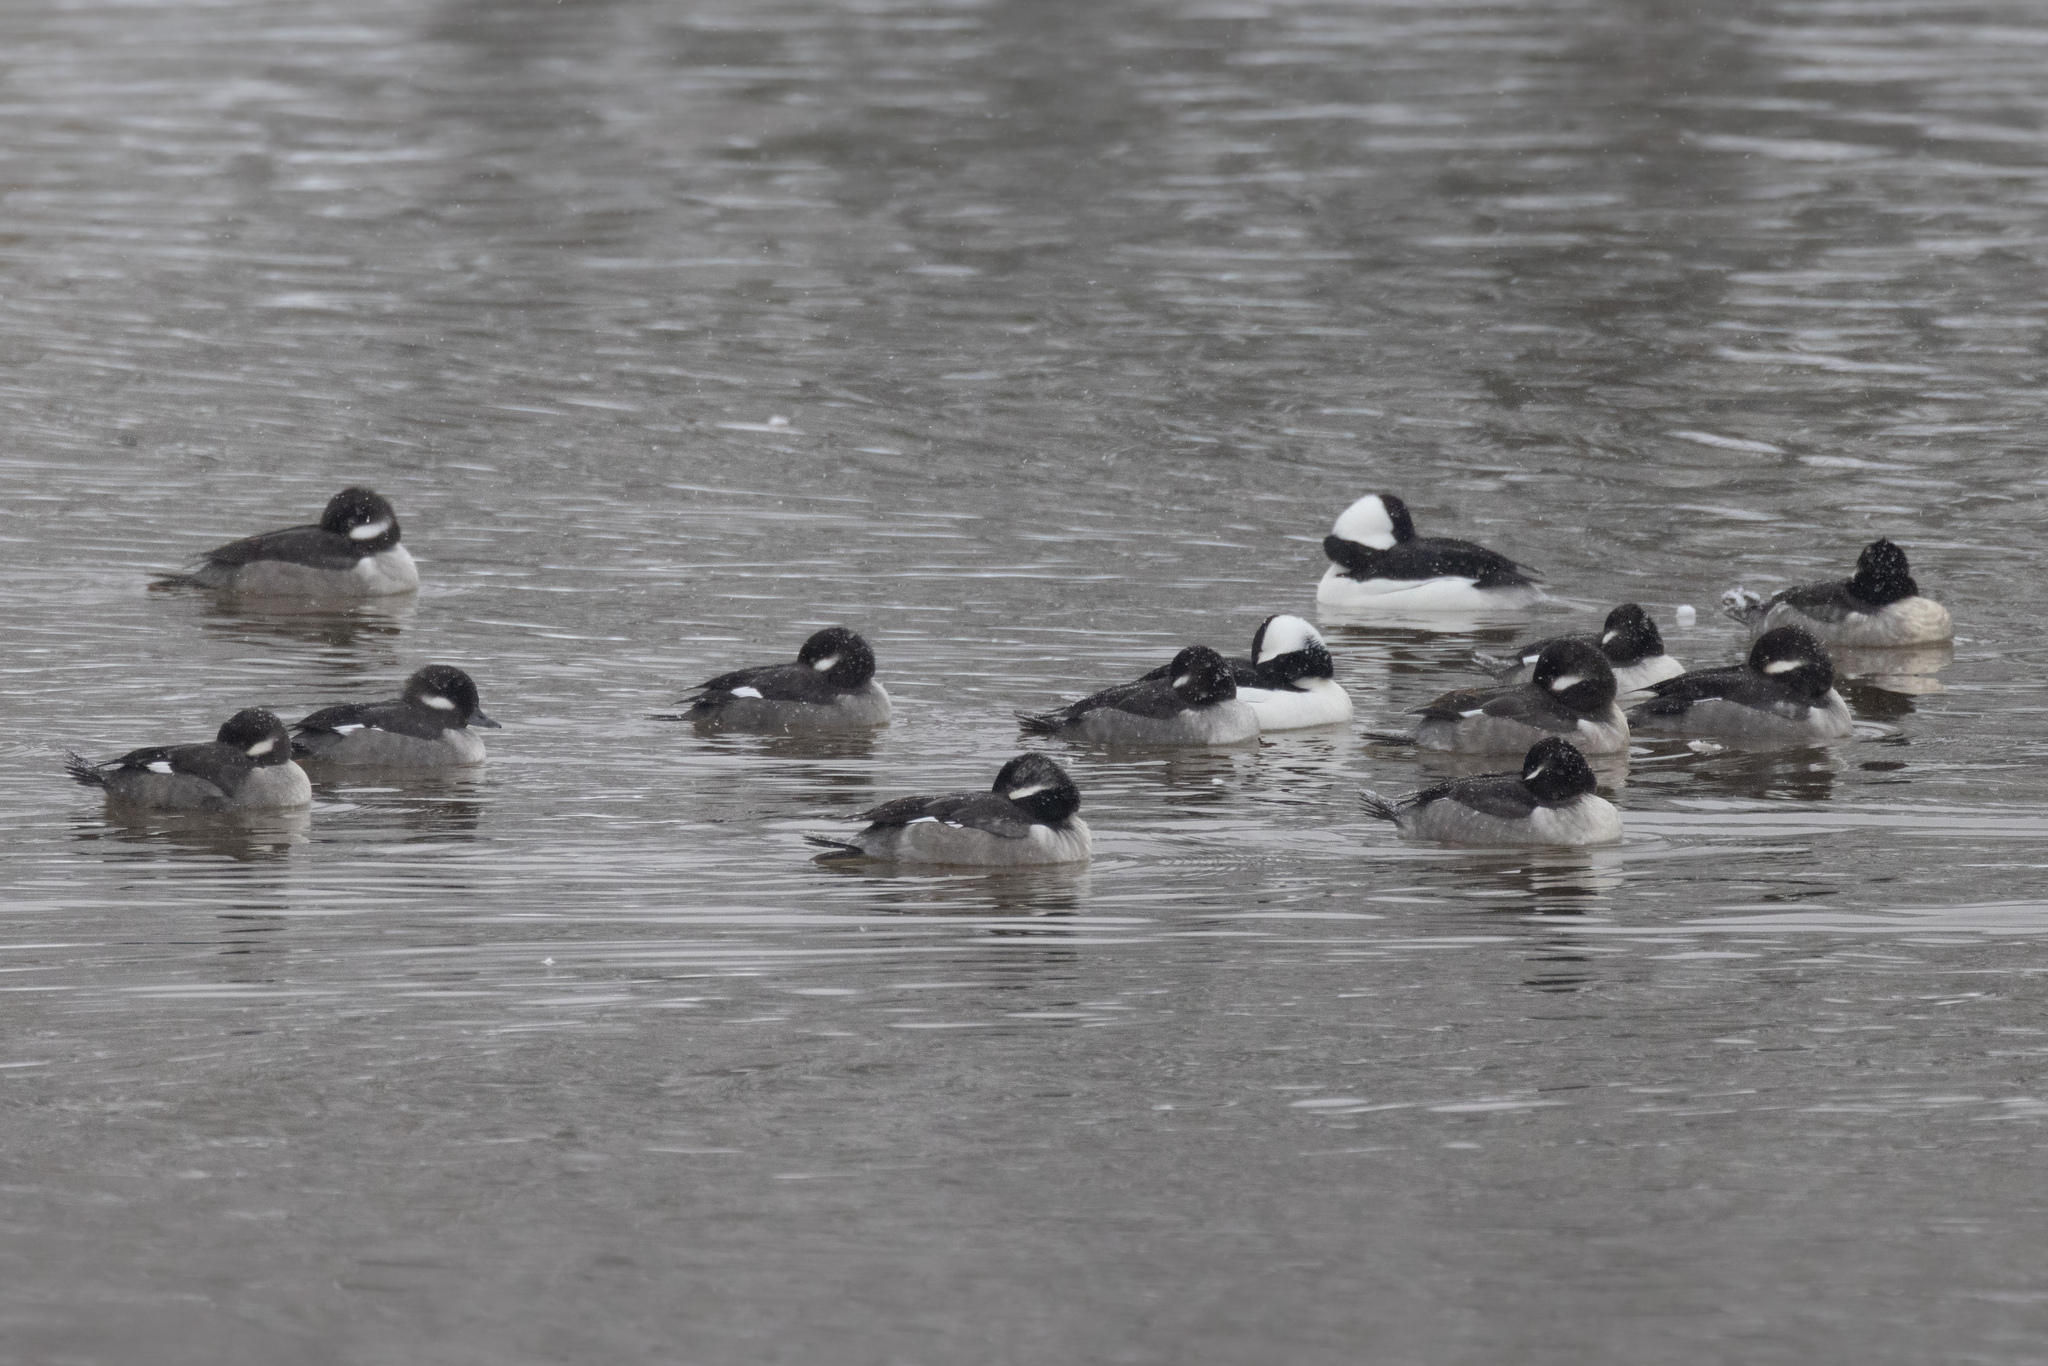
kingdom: Animalia
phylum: Chordata
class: Aves
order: Anseriformes
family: Anatidae
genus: Bucephala
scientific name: Bucephala albeola
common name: Bufflehead
